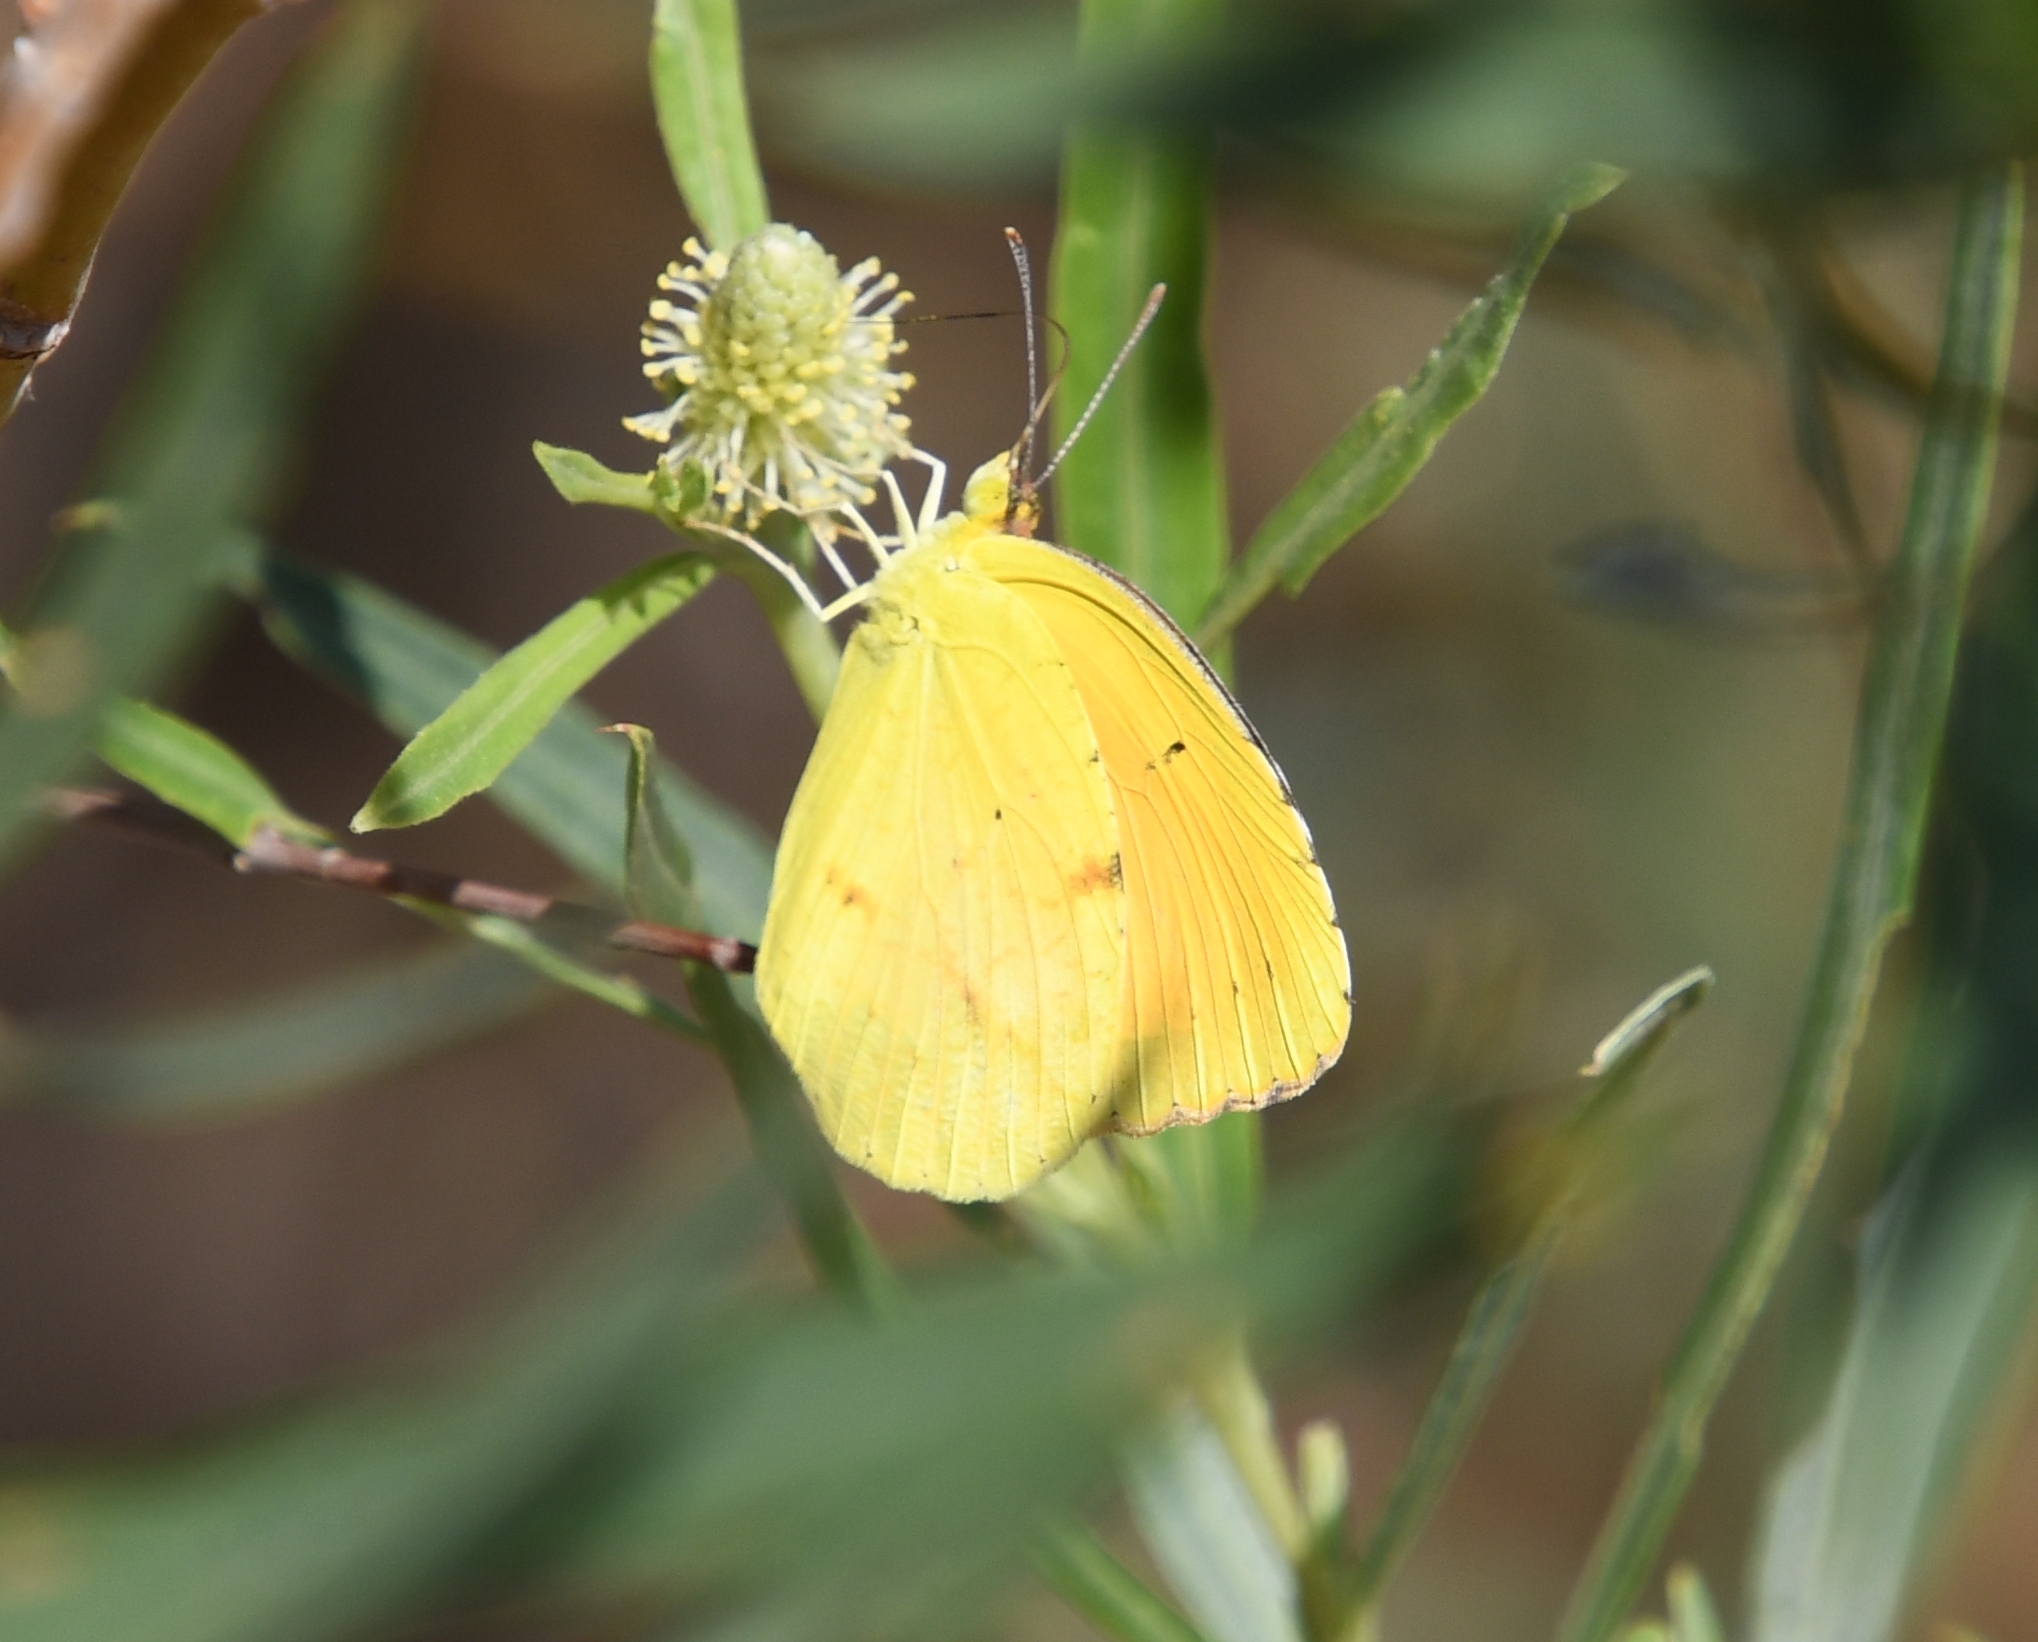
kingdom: Animalia
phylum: Arthropoda
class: Insecta
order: Lepidoptera
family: Pieridae
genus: Abaeis
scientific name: Abaeis nicippe
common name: Sleepy orange
